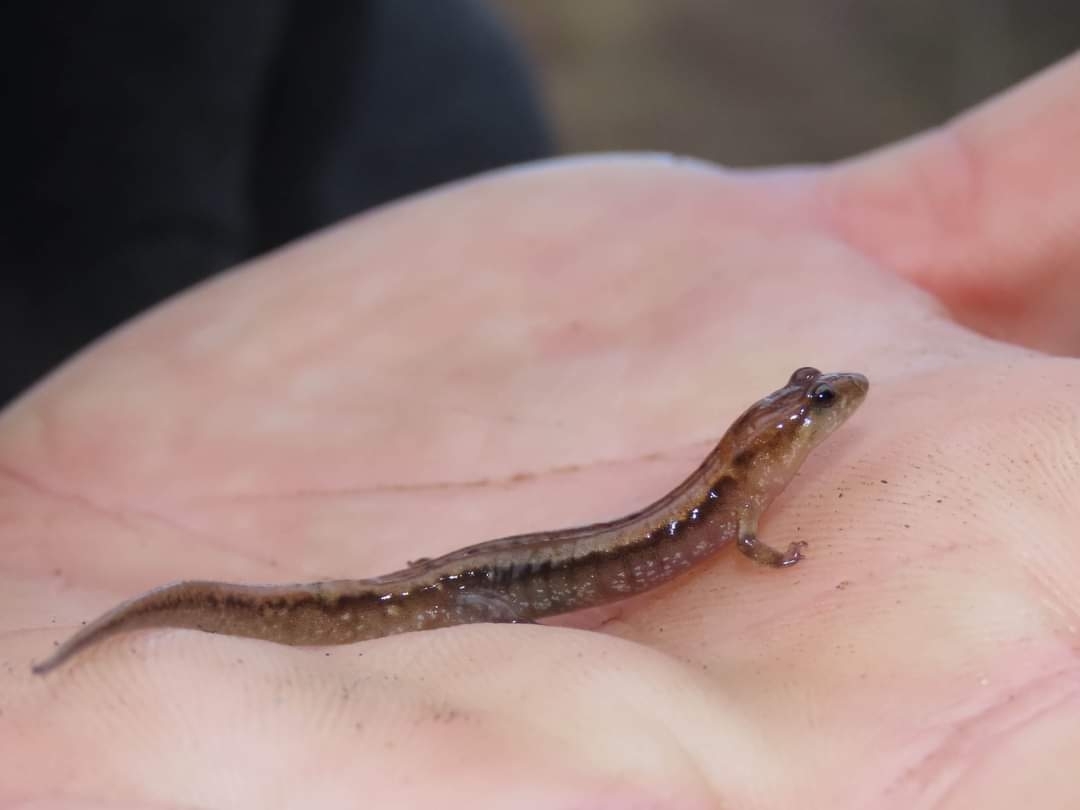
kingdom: Animalia
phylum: Chordata
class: Amphibia
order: Caudata
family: Plethodontidae
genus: Desmognathus
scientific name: Desmognathus ochrophaeus
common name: Allegheny mountain dusky salamander
